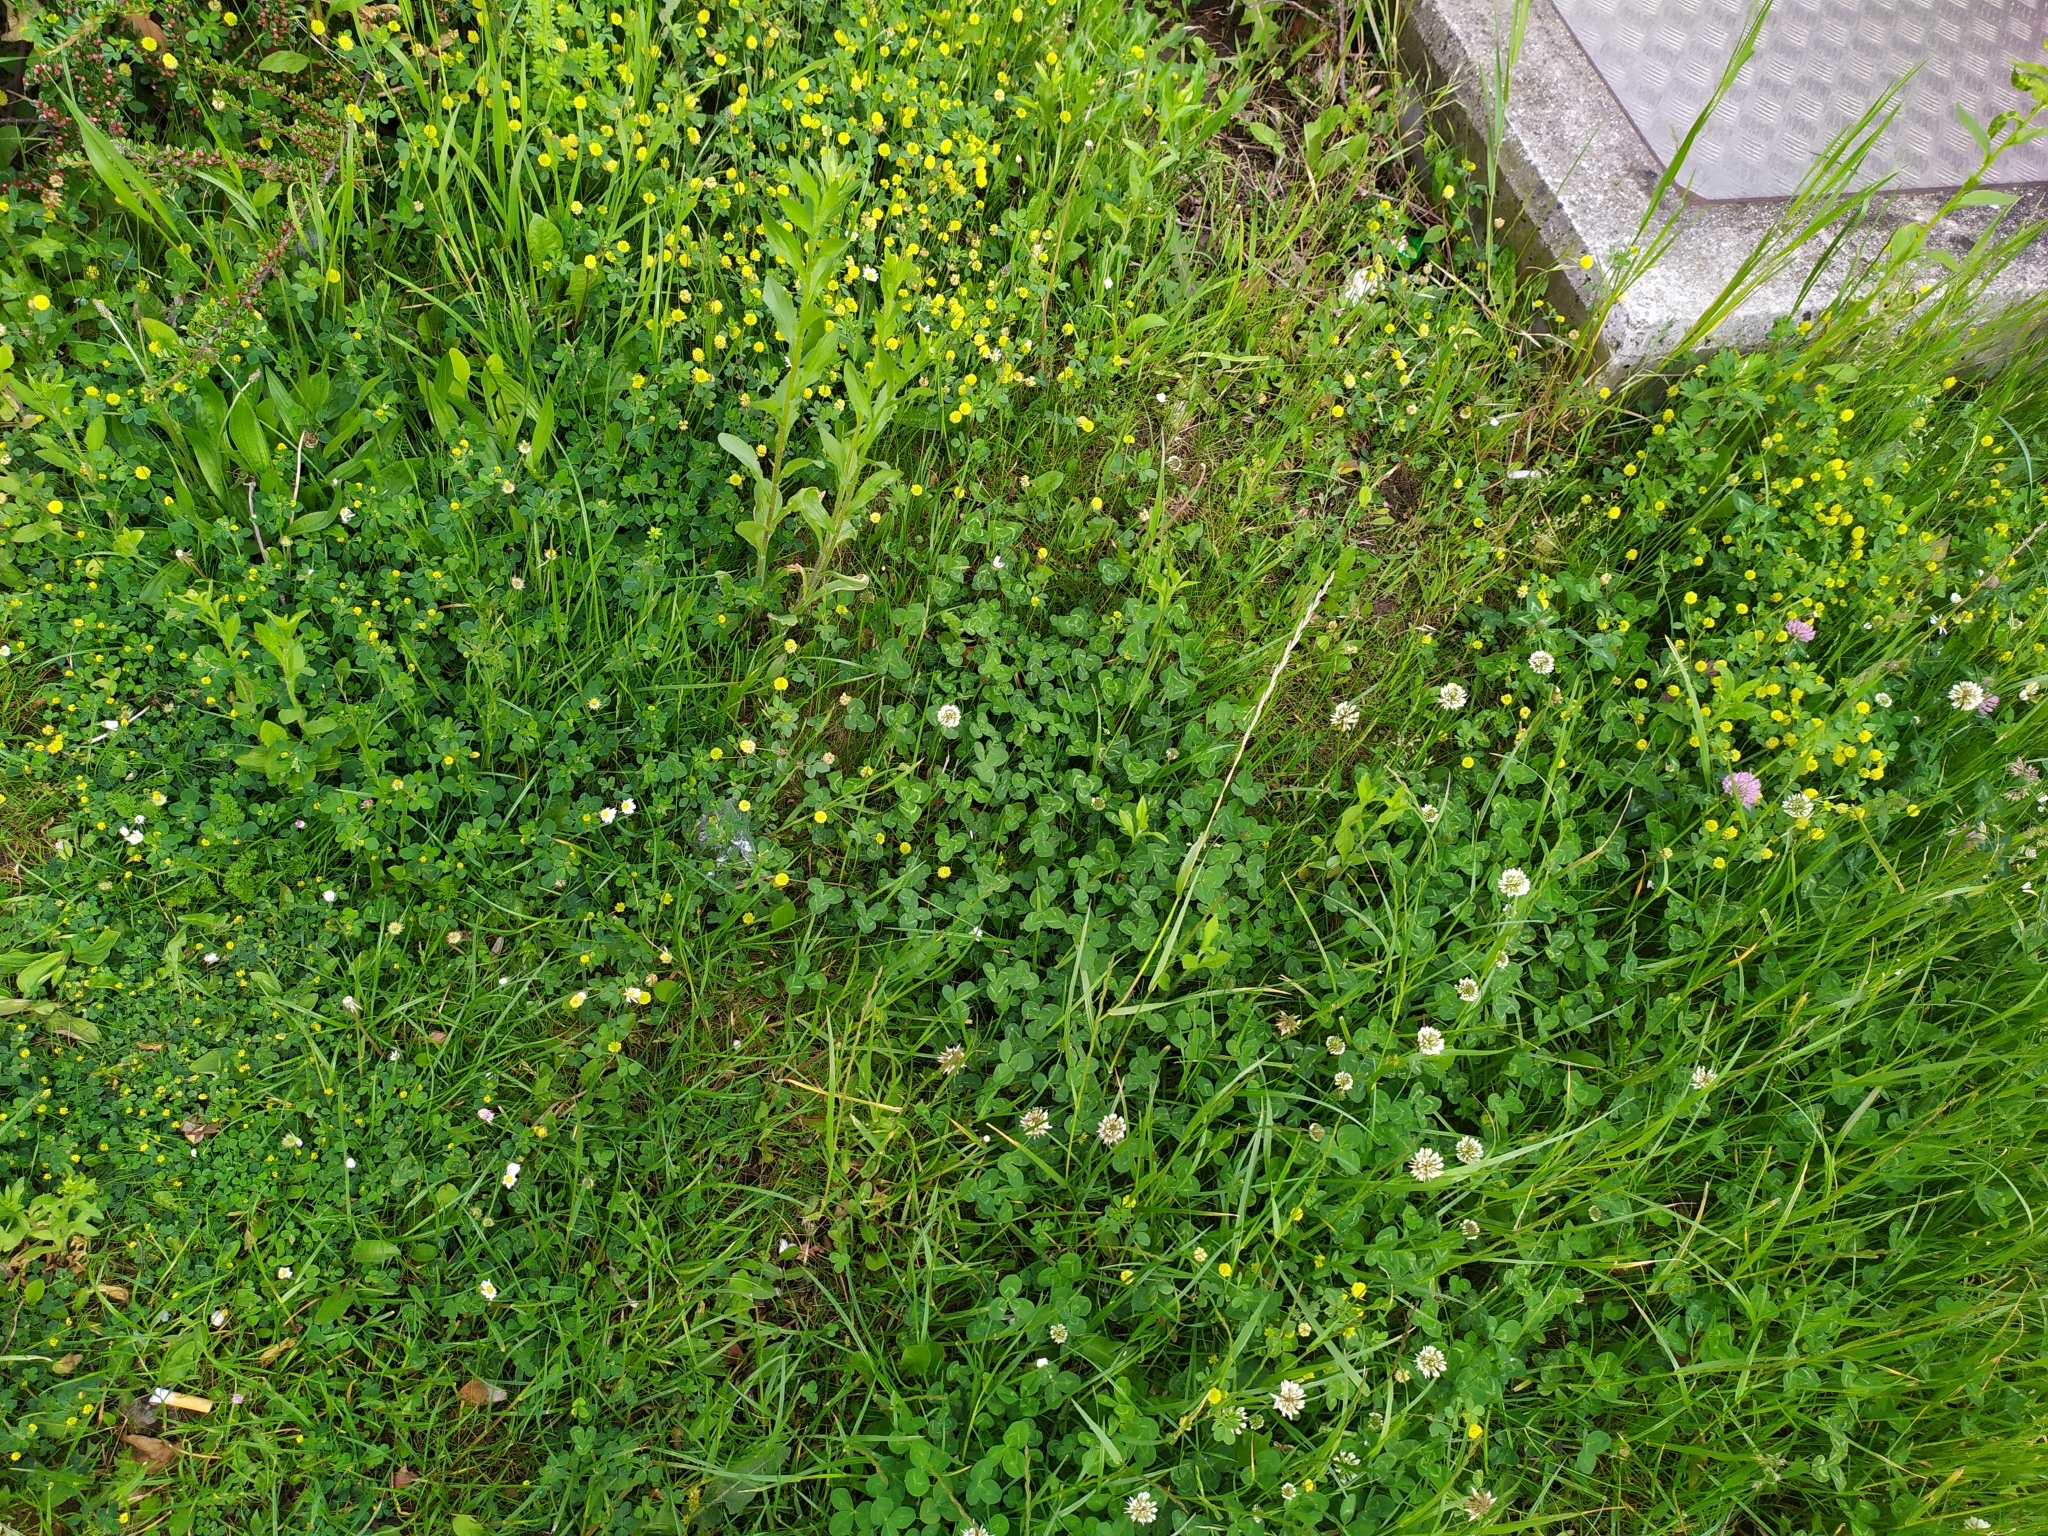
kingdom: Plantae
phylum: Tracheophyta
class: Magnoliopsida
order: Fabales
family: Fabaceae
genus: Trifolium
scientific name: Trifolium campestre
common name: Field clover
